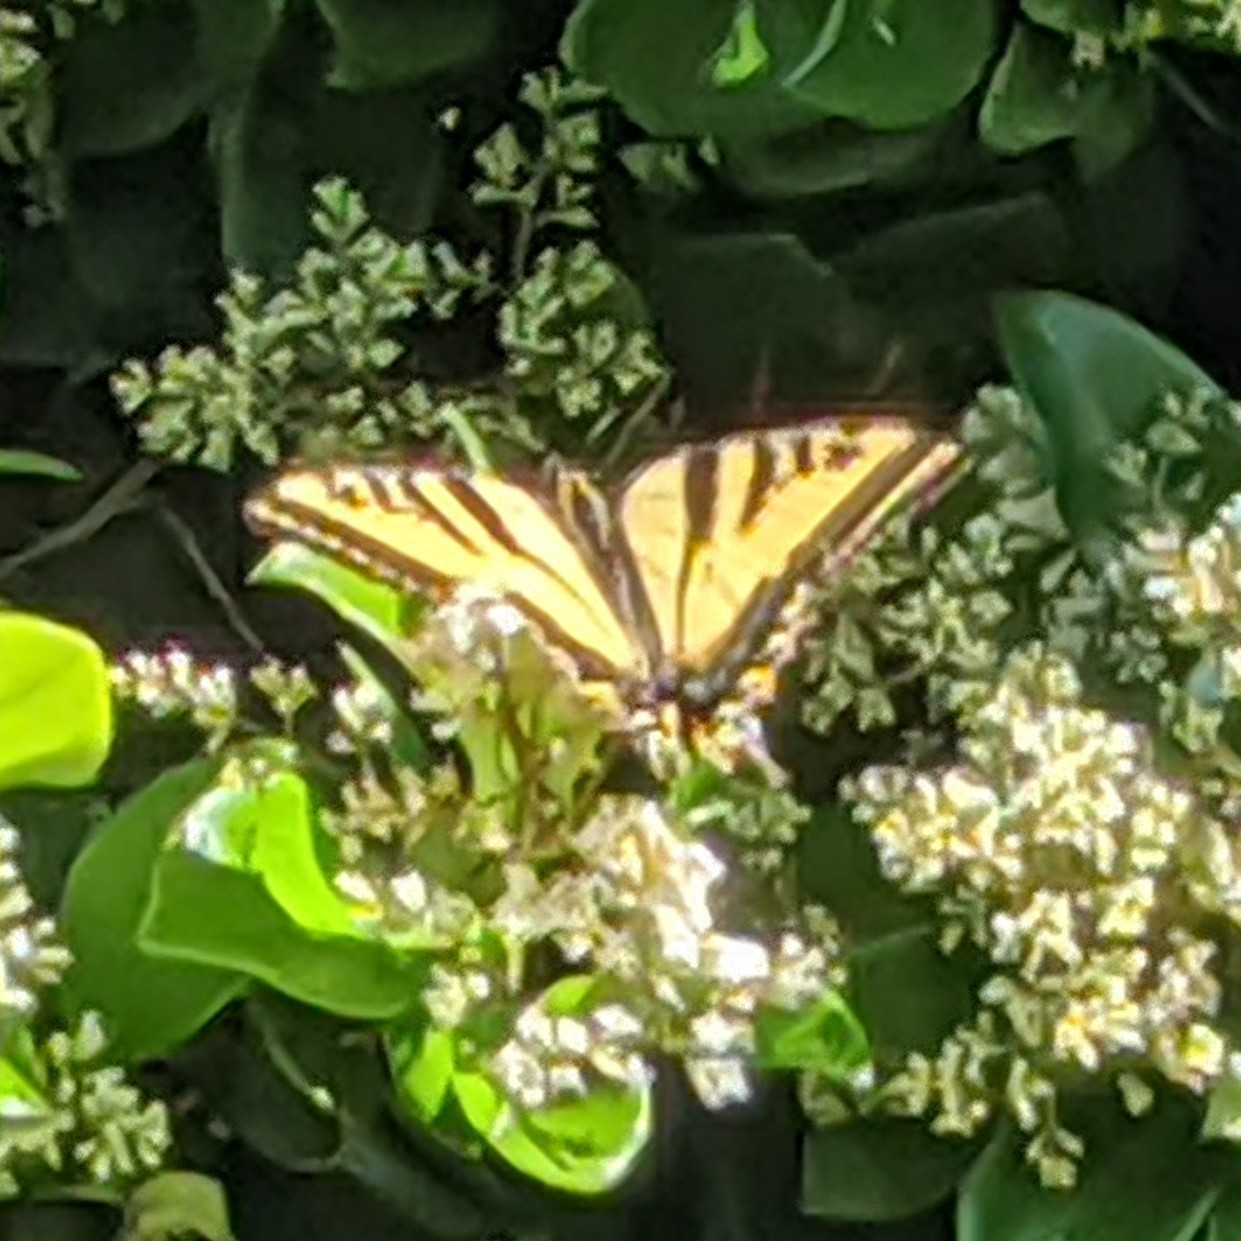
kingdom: Animalia
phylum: Arthropoda
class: Insecta
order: Lepidoptera
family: Papilionidae
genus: Papilio
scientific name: Papilio rutulus
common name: Western tiger swallowtail
